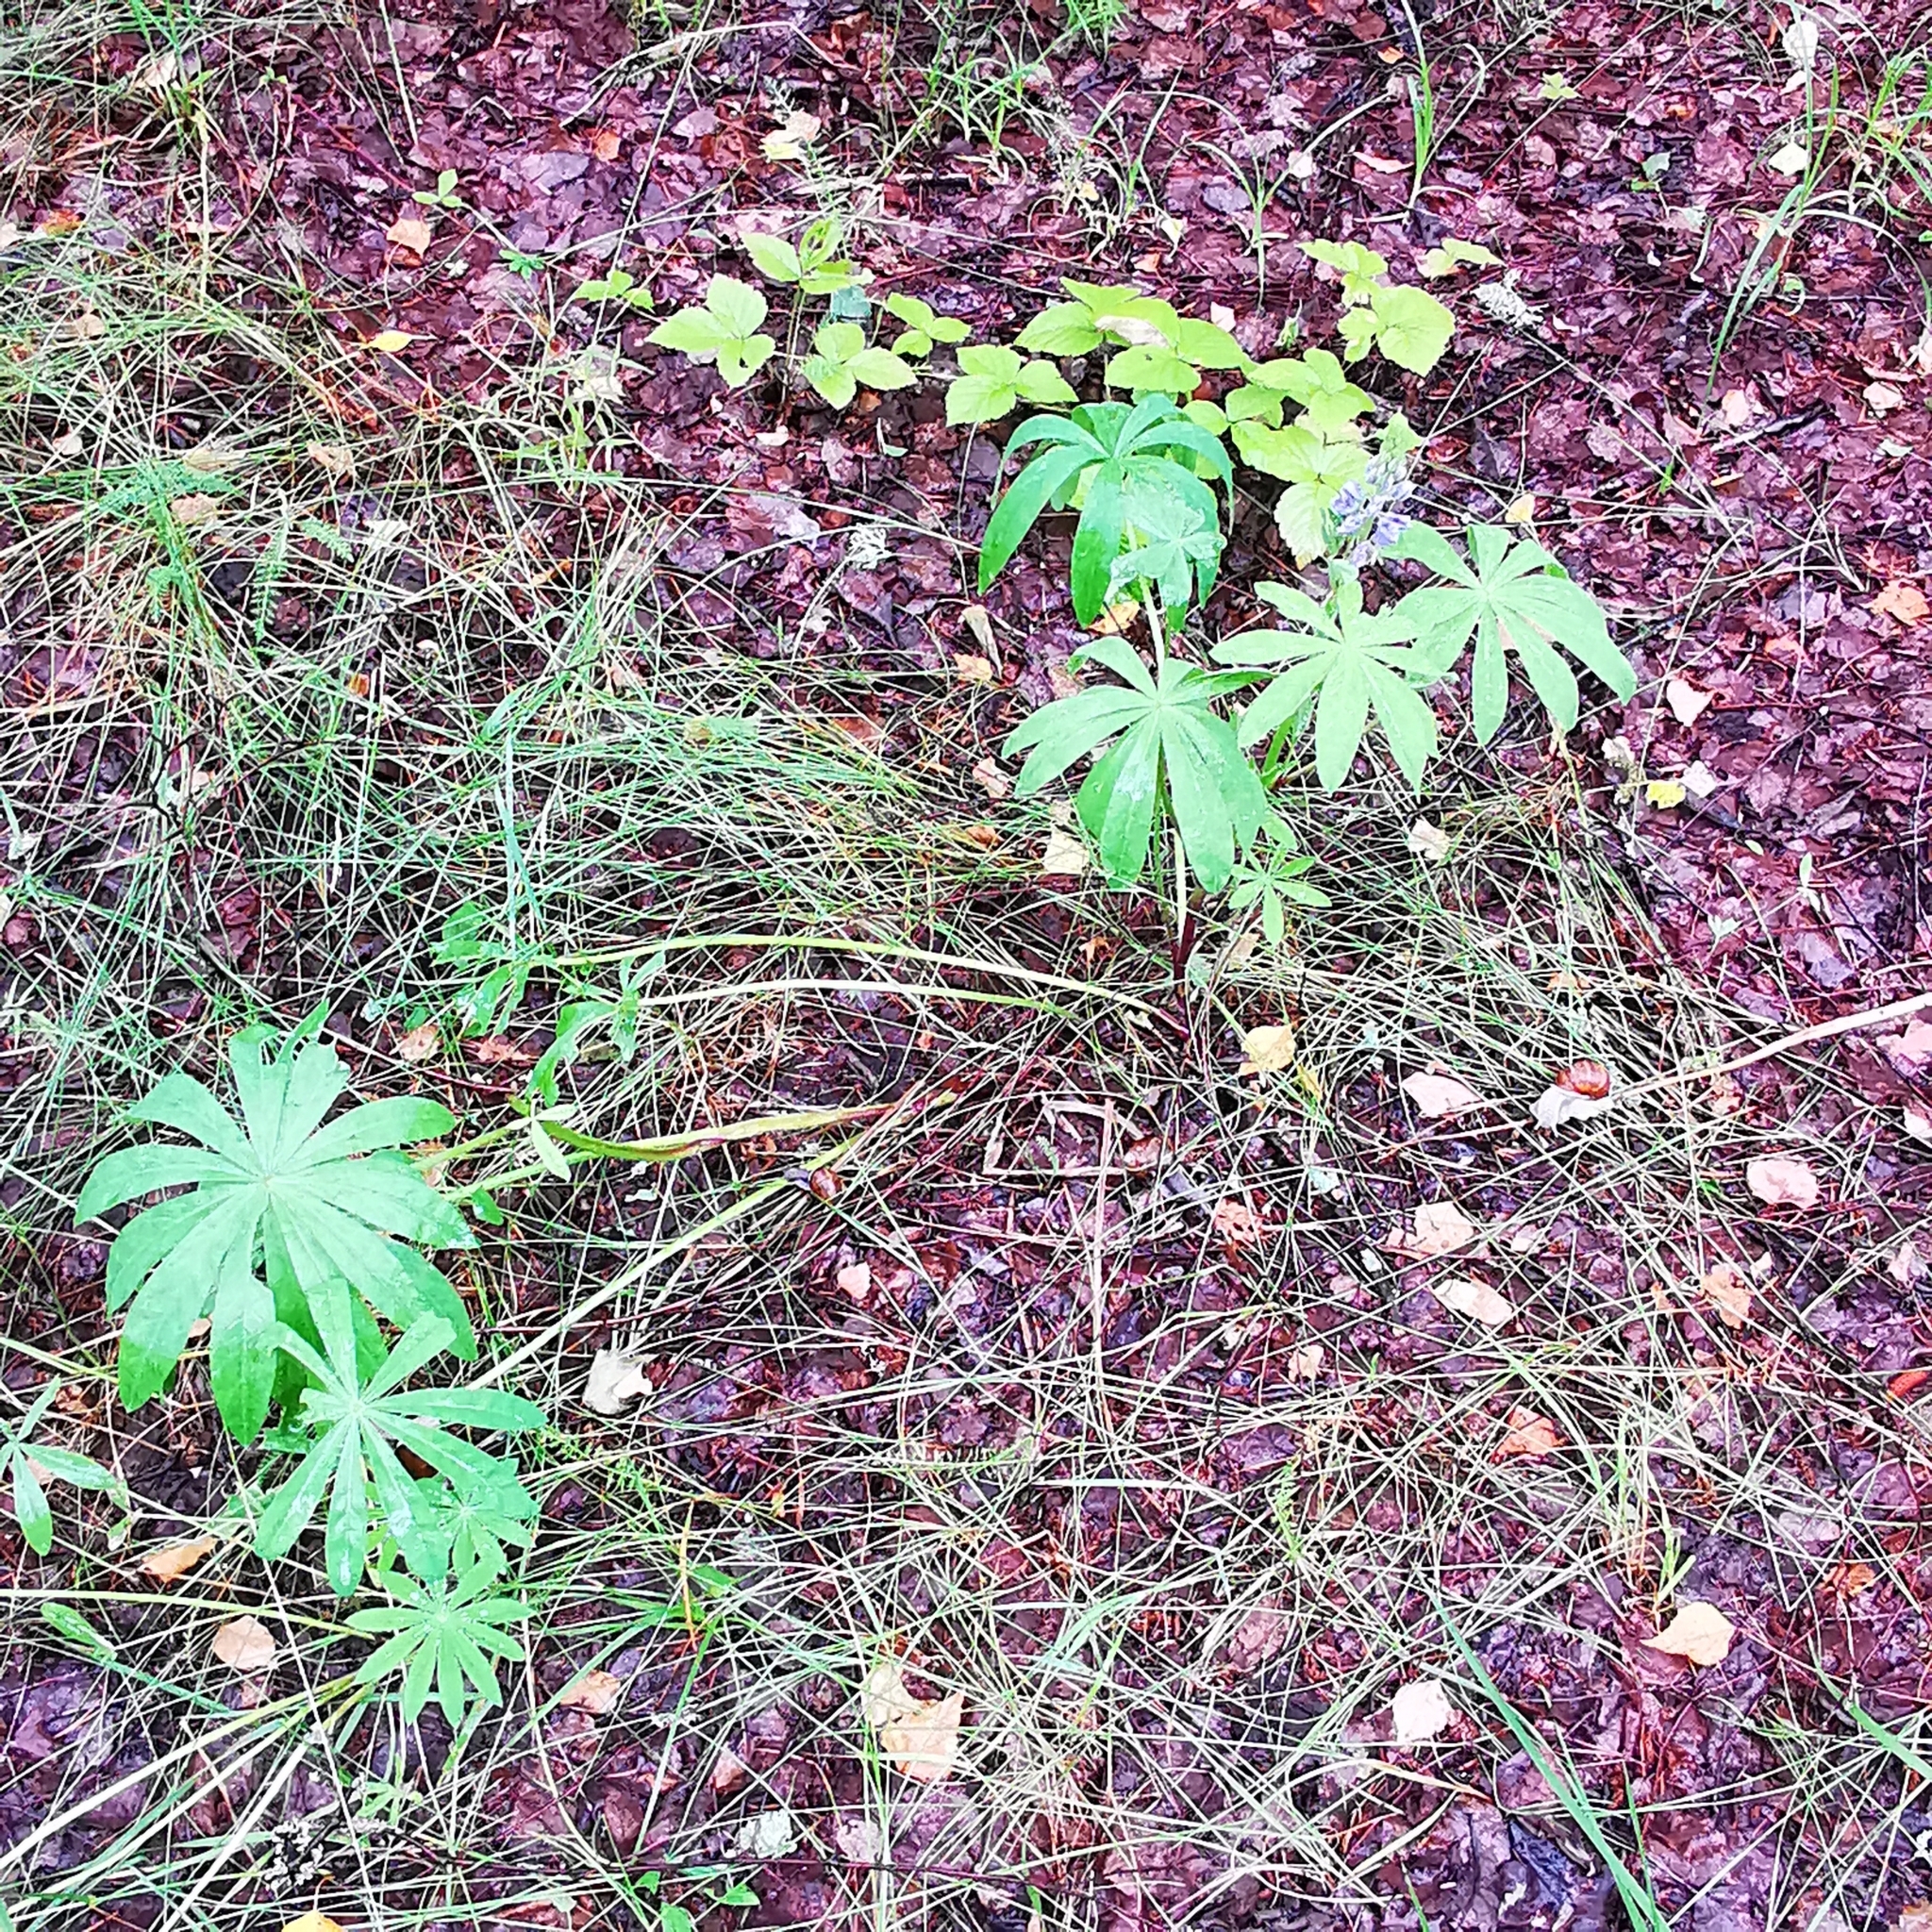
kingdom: Plantae
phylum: Tracheophyta
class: Magnoliopsida
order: Fabales
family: Fabaceae
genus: Lupinus
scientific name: Lupinus polyphyllus
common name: Garden lupin
